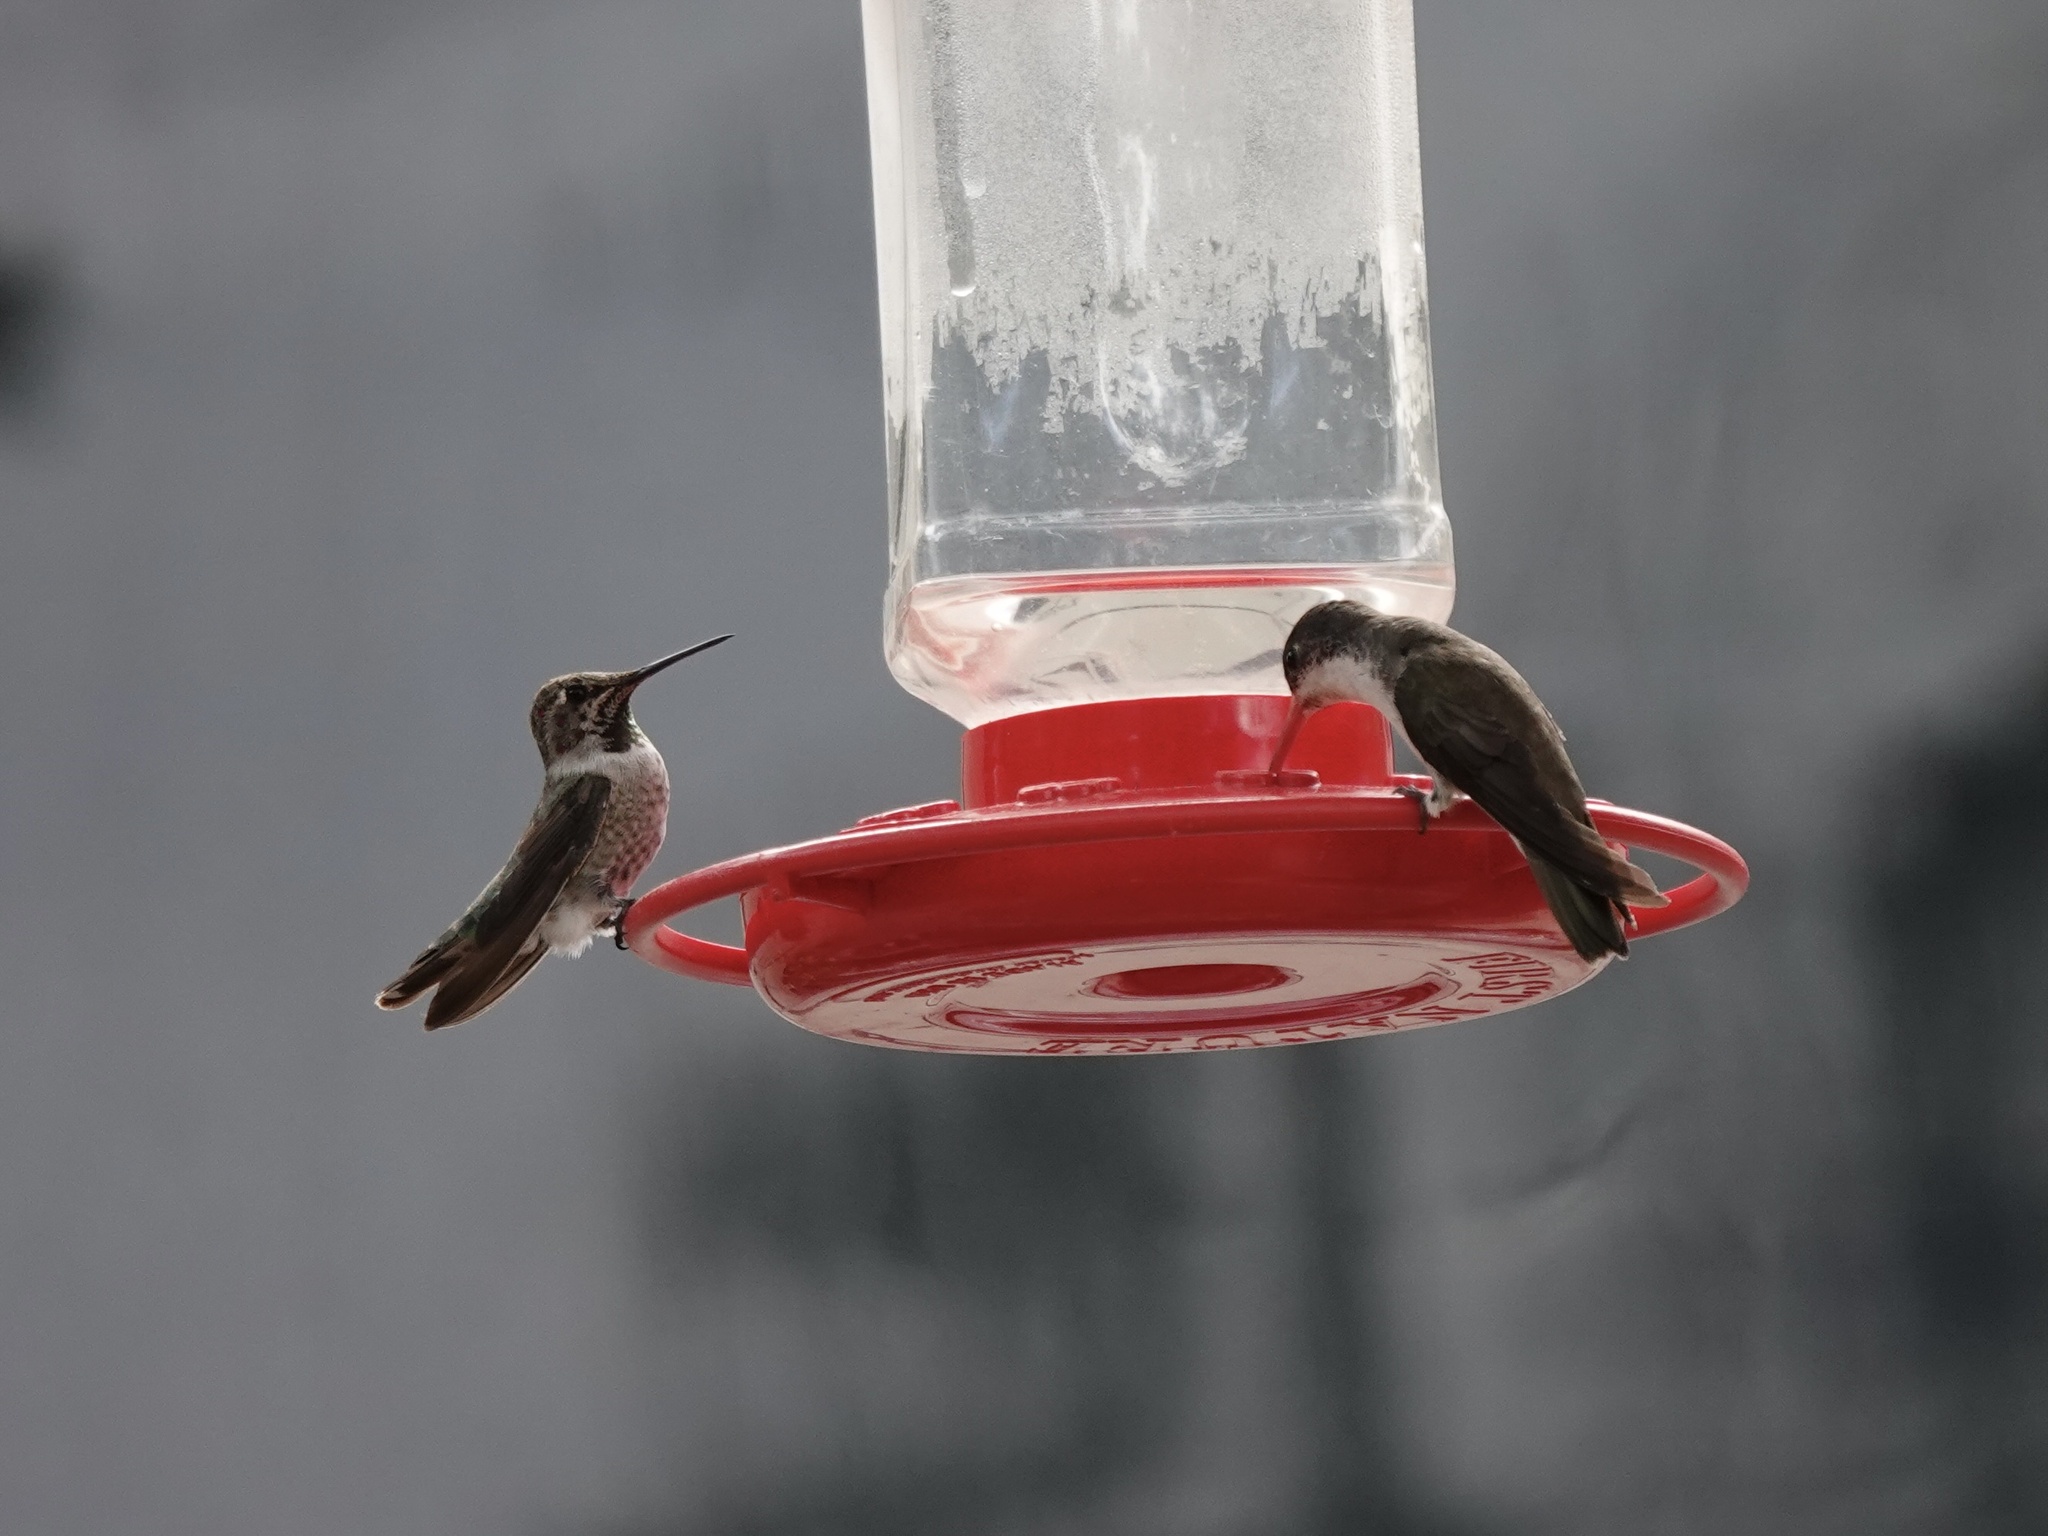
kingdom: Animalia
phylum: Chordata
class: Aves
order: Apodiformes
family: Trochilidae
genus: Leucolia
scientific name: Leucolia violiceps
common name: Violet-crowned hummingbird
